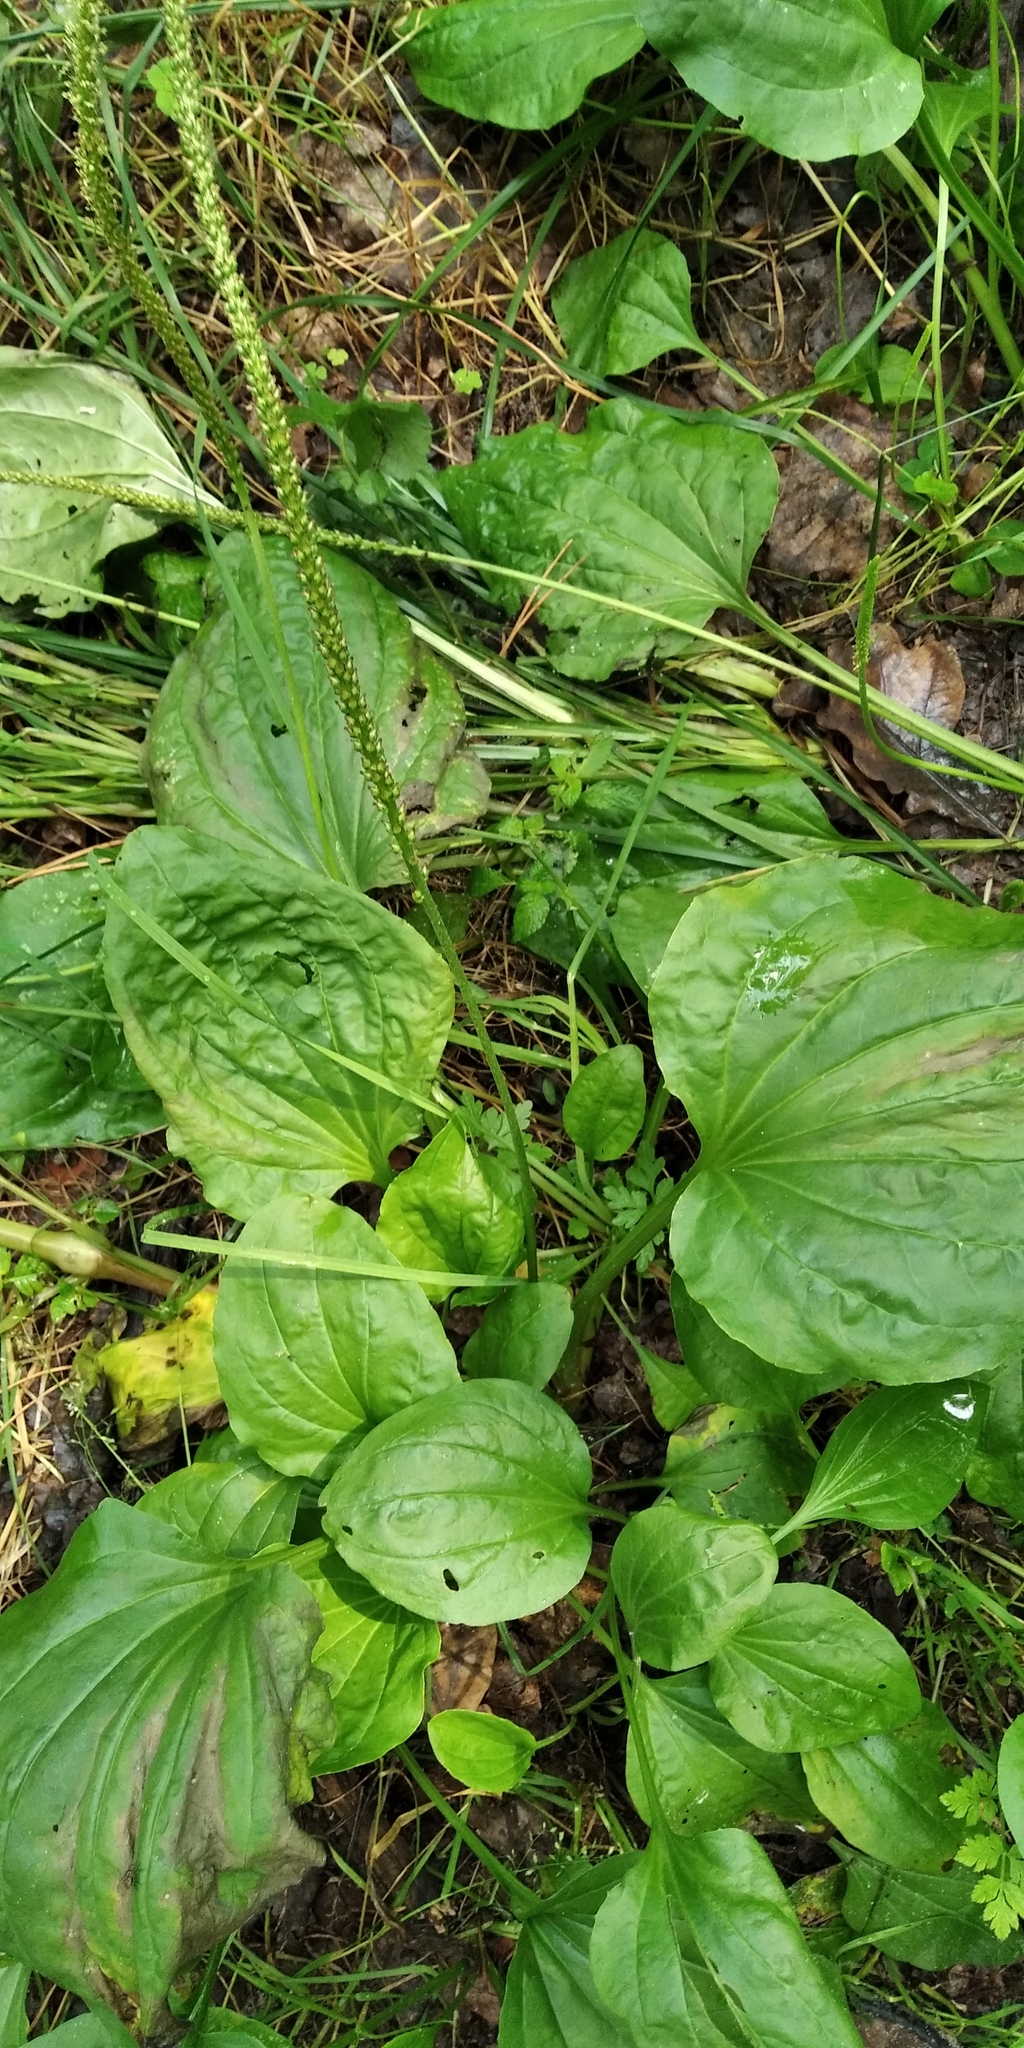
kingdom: Plantae
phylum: Tracheophyta
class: Magnoliopsida
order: Lamiales
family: Plantaginaceae
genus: Plantago
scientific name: Plantago major
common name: Common plantain
